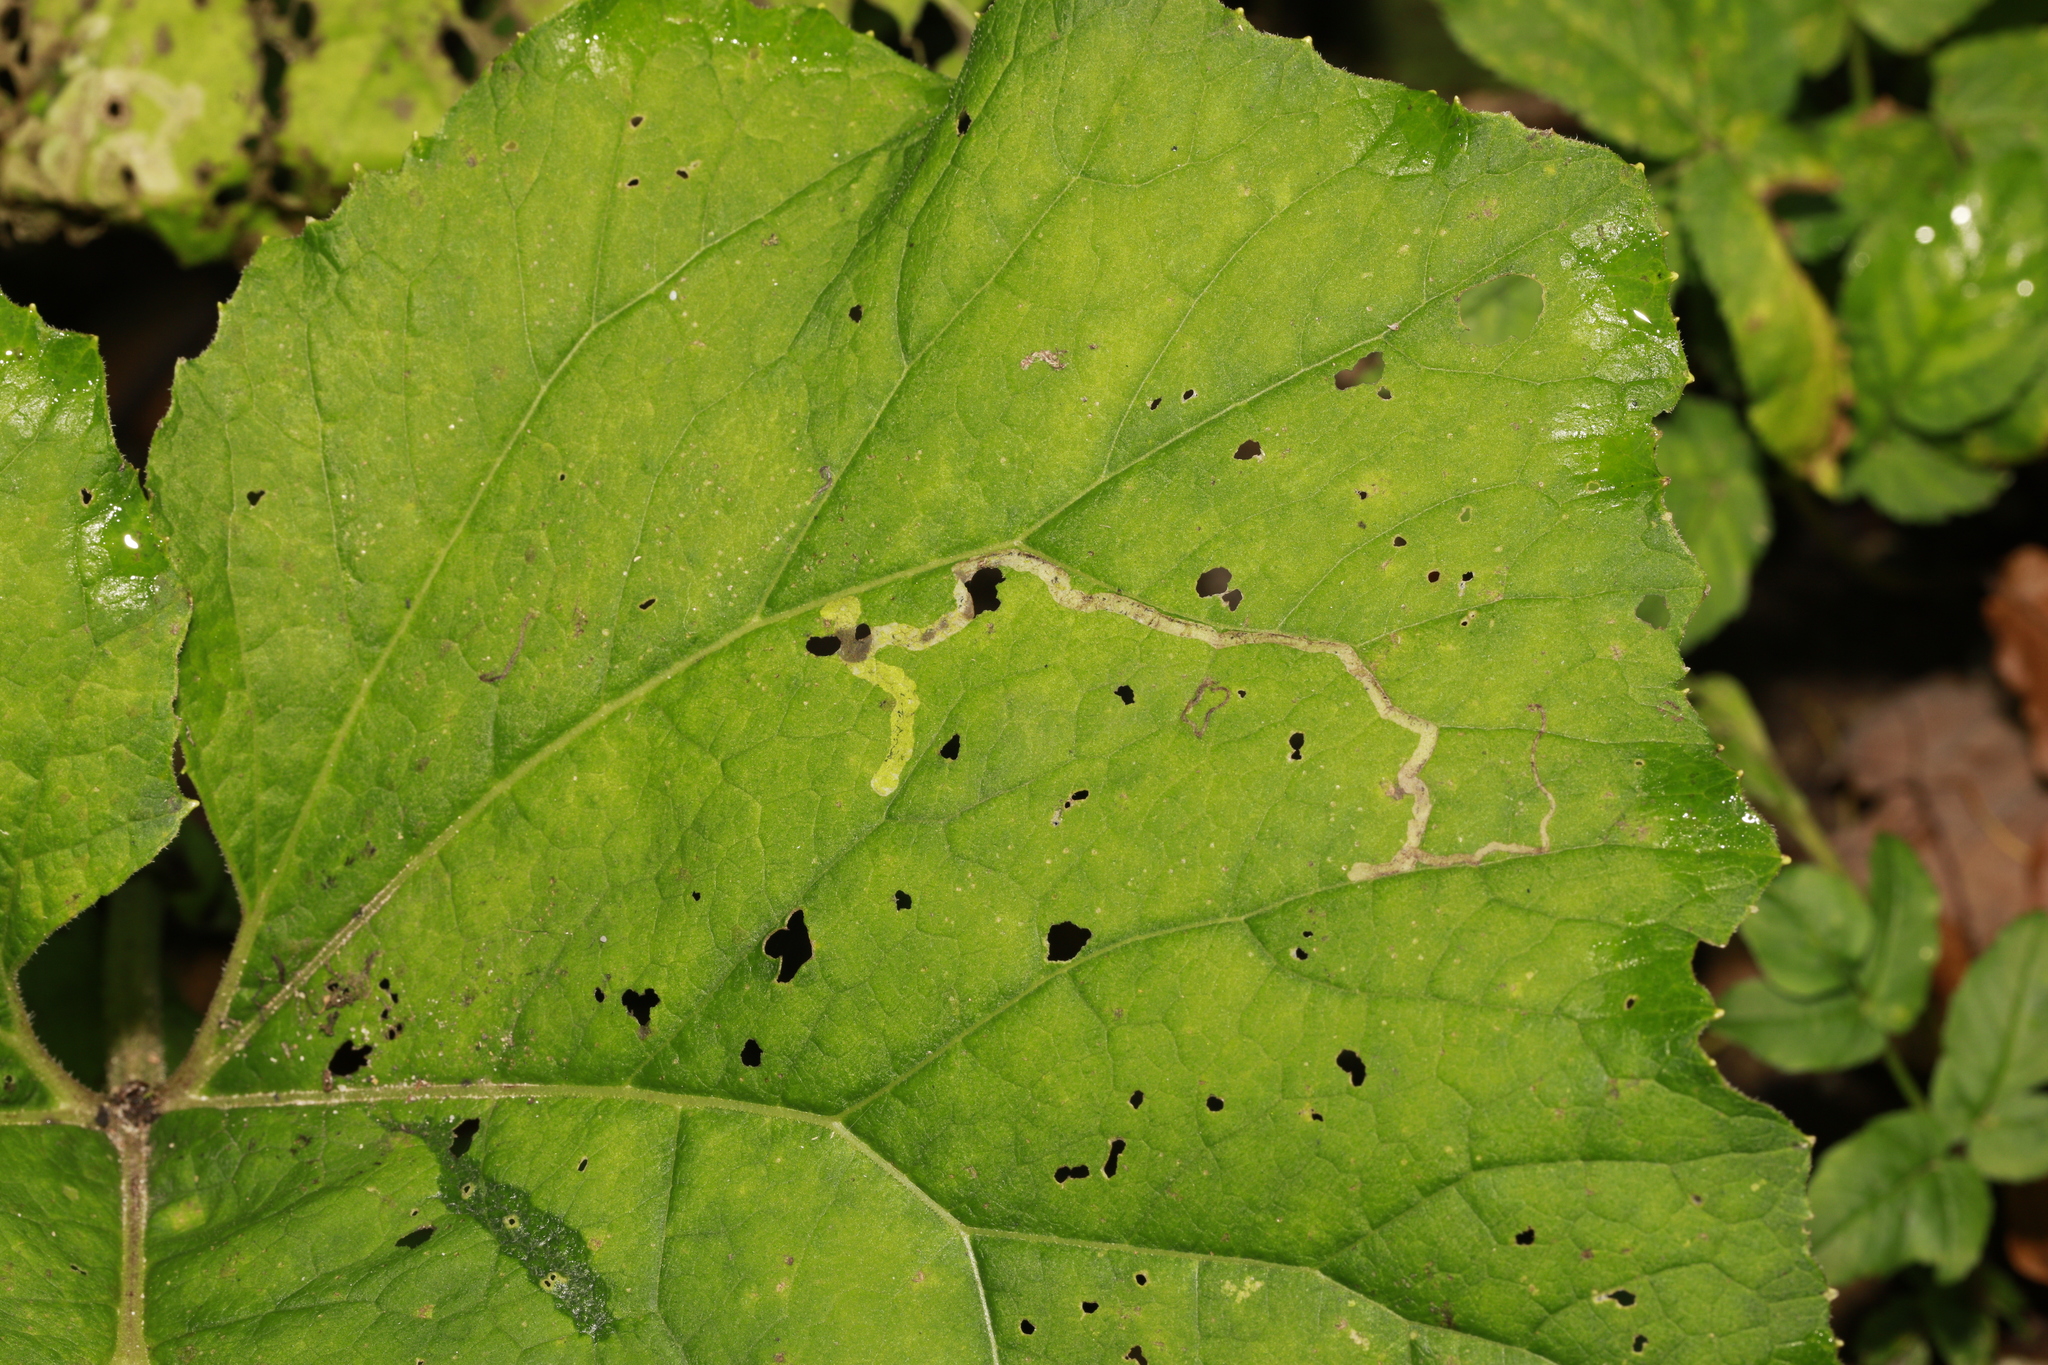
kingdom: Plantae
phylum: Tracheophyta
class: Magnoliopsida
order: Asterales
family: Asteraceae
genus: Tussilago
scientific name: Tussilago farfara
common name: Coltsfoot
